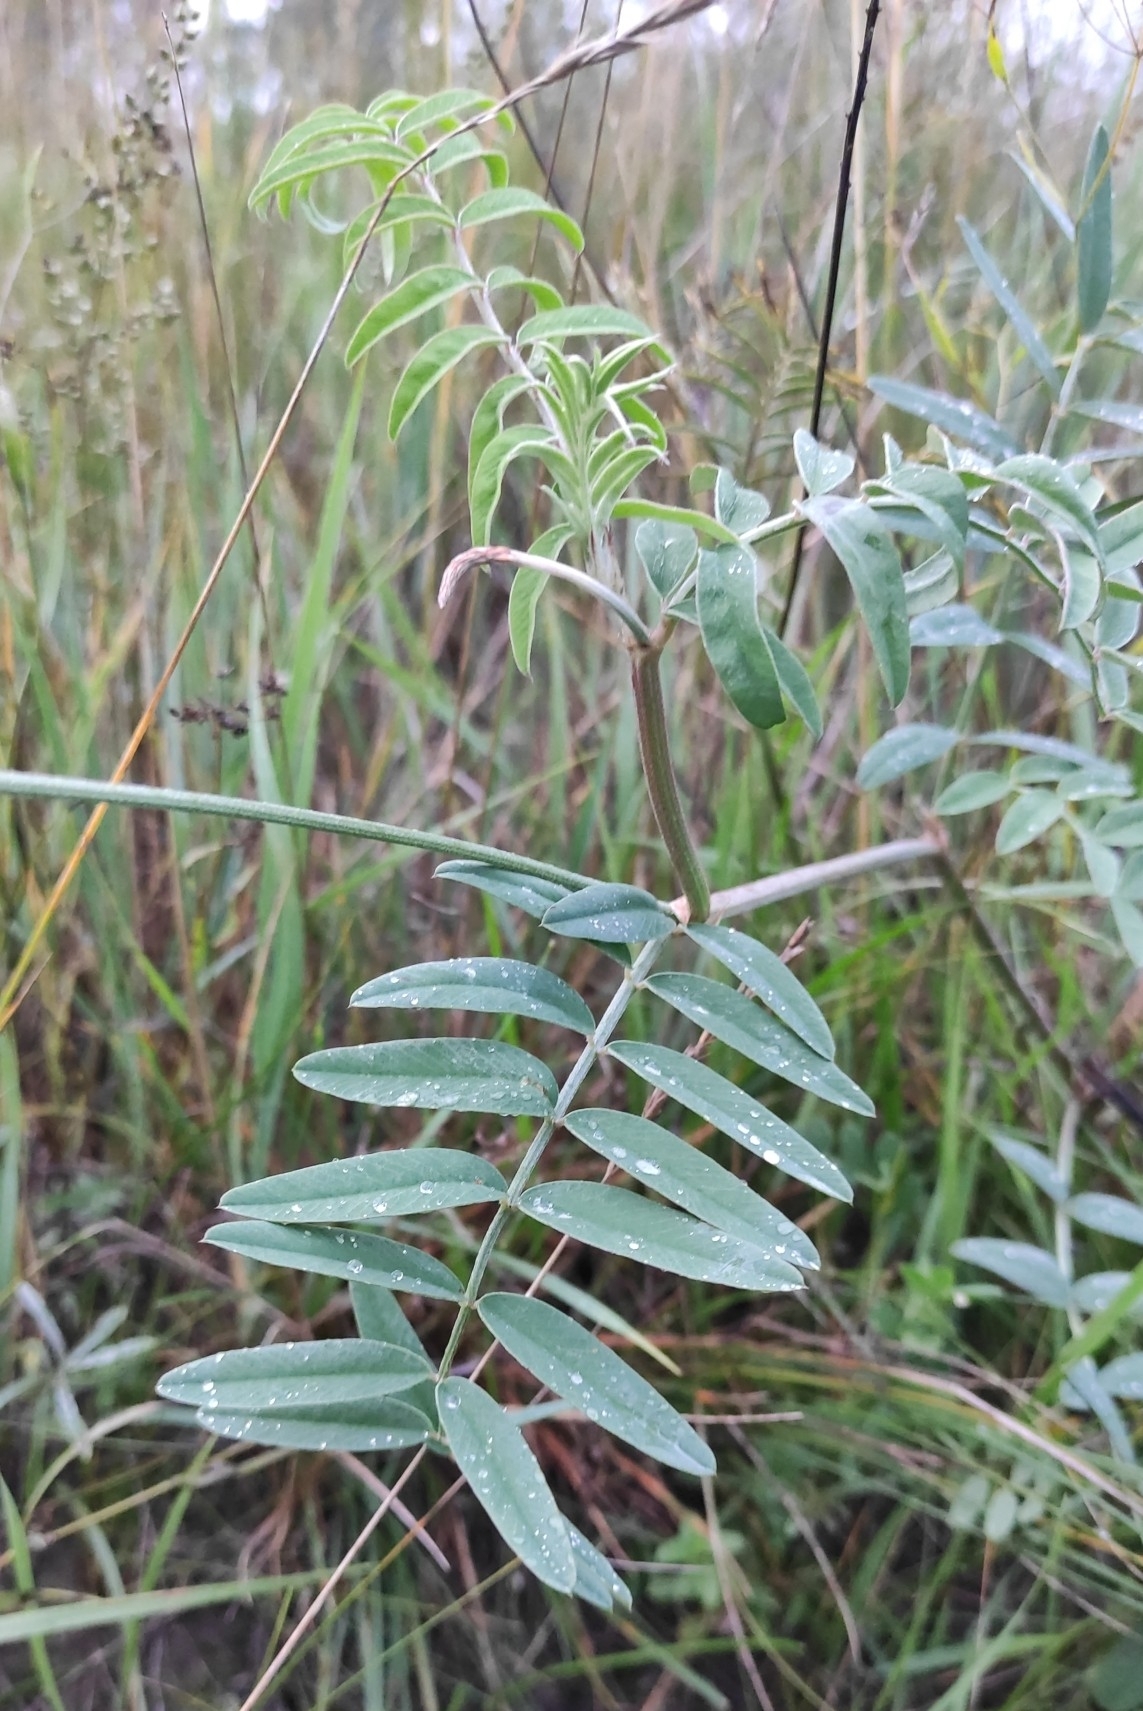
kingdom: Plantae
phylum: Tracheophyta
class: Magnoliopsida
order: Fabales
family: Fabaceae
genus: Onobrychis
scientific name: Onobrychis arenaria
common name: Sand esparcet
